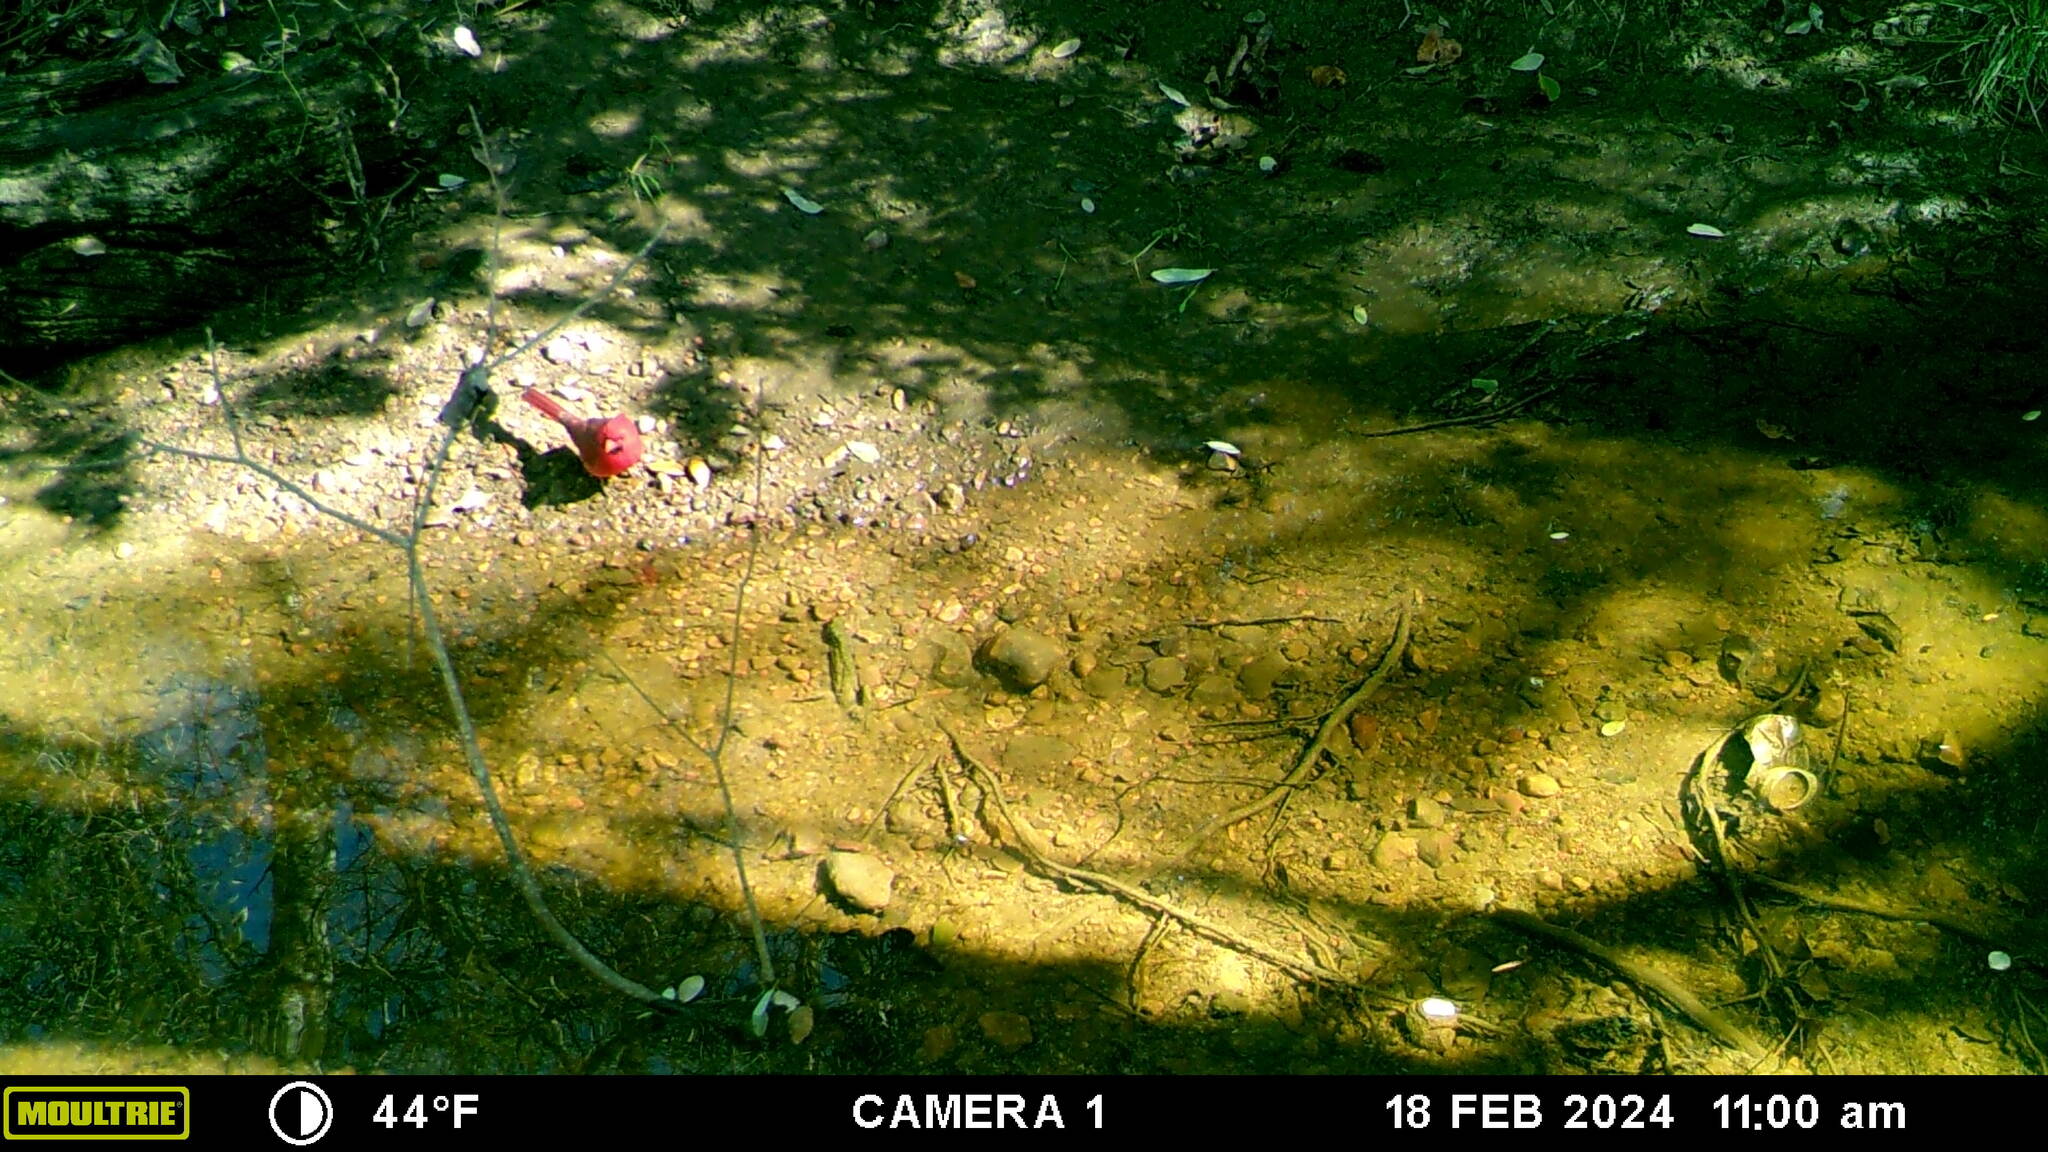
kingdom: Animalia
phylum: Chordata
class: Aves
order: Passeriformes
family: Cardinalidae
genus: Cardinalis
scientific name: Cardinalis cardinalis
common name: Northern cardinal
